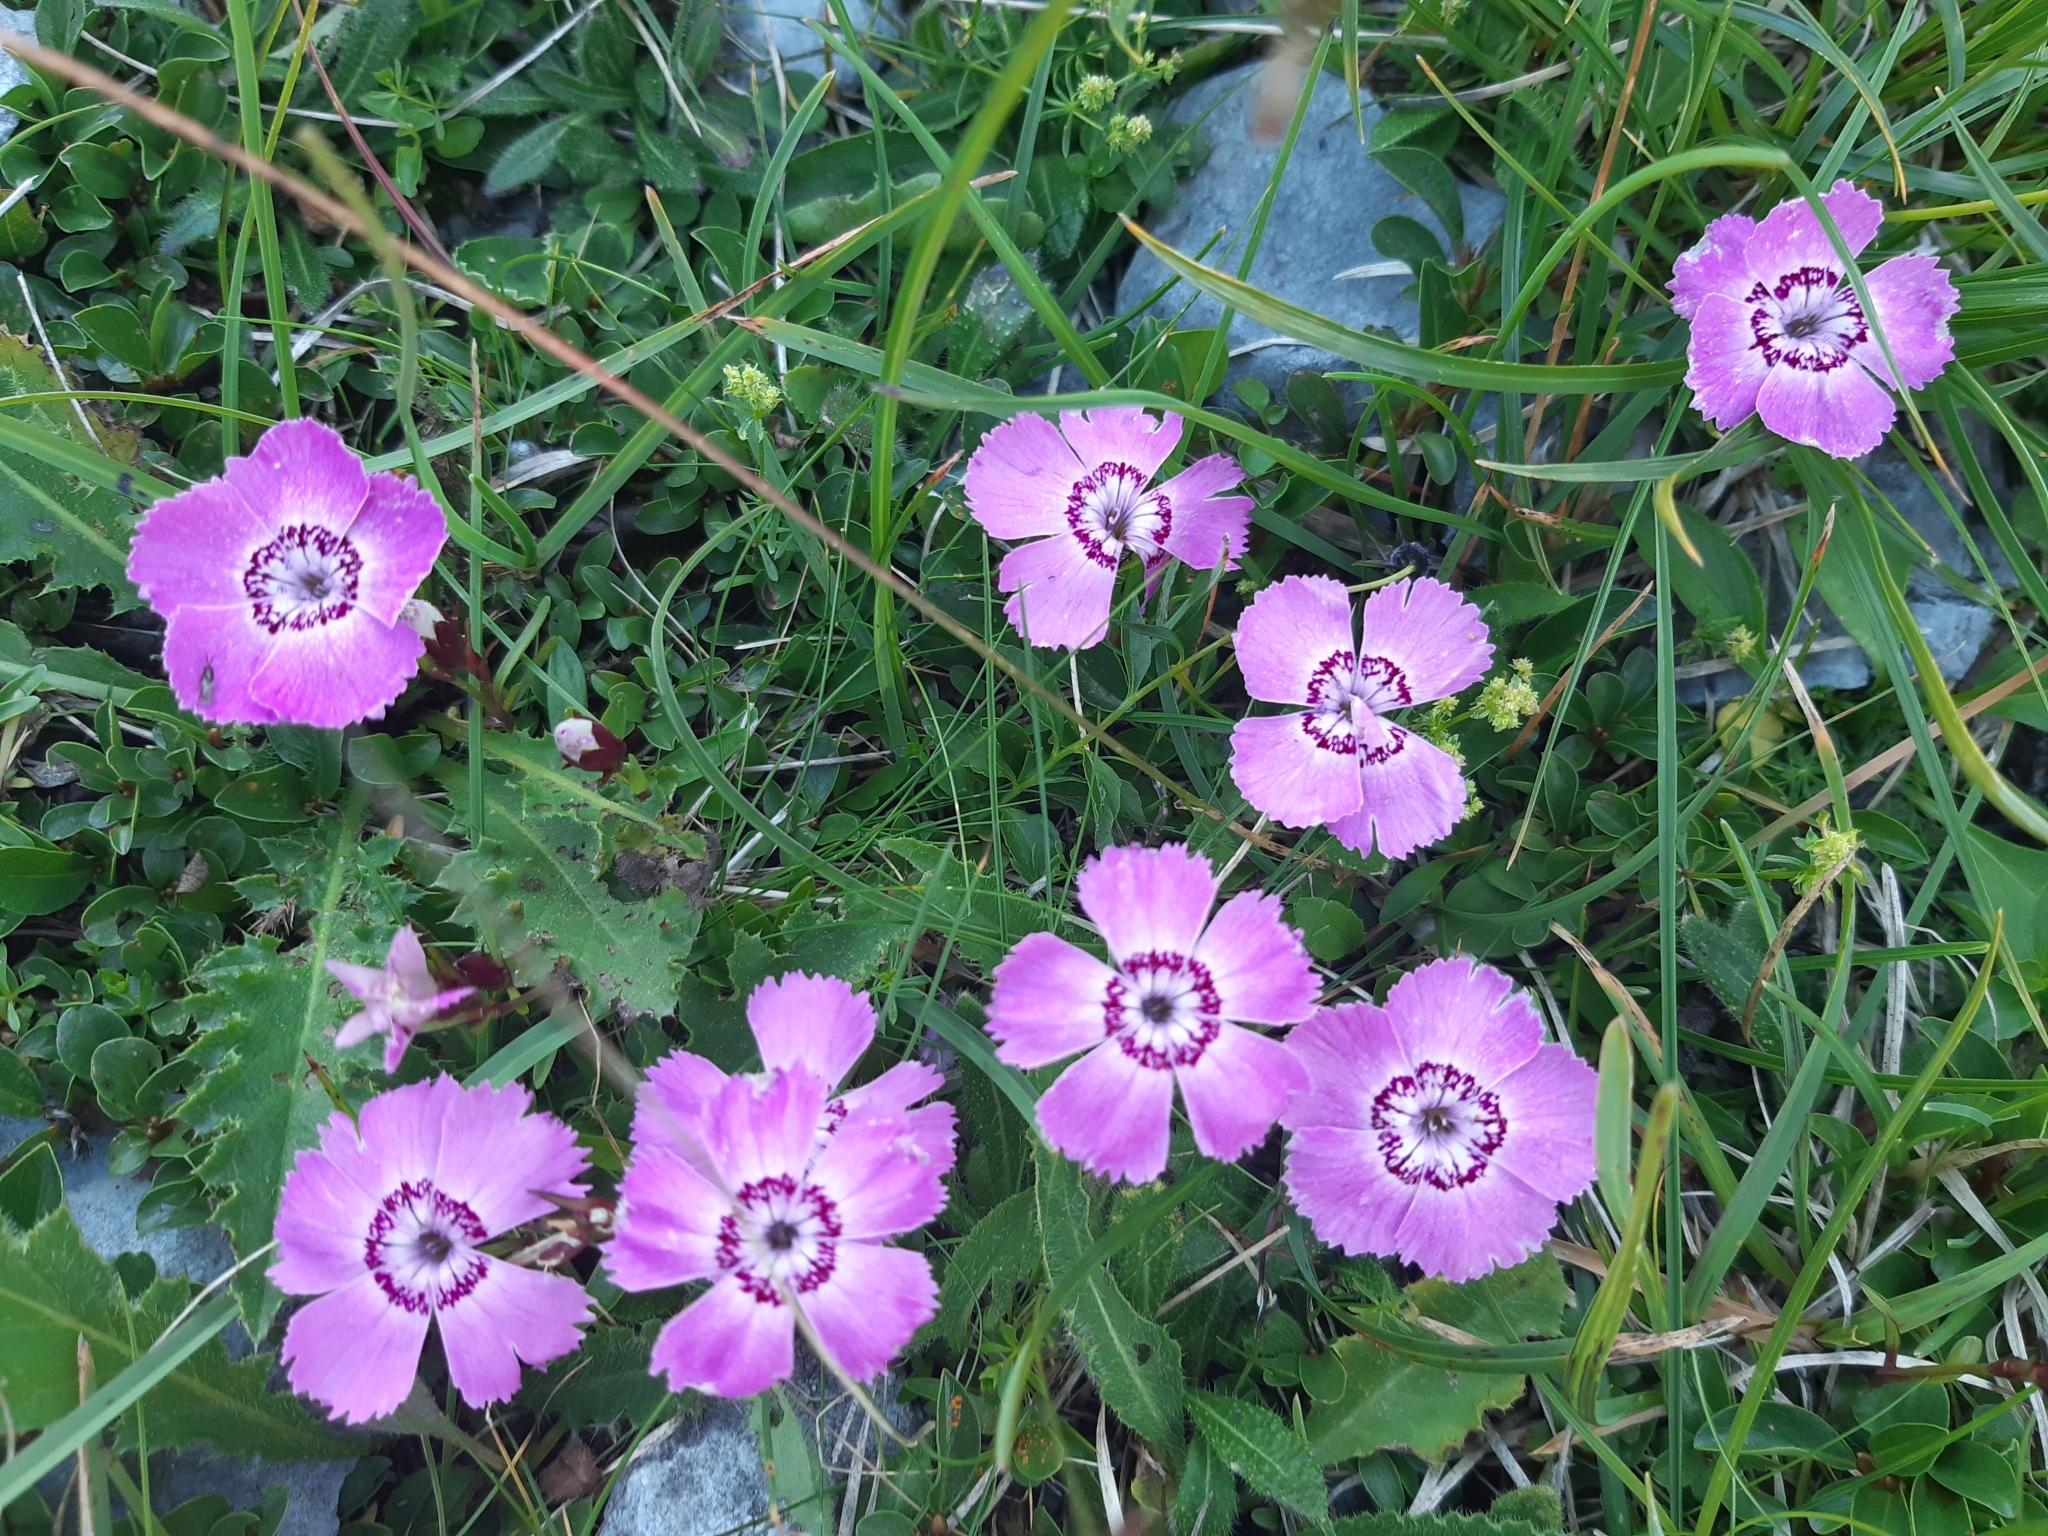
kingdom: Plantae
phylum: Tracheophyta
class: Magnoliopsida
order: Caryophyllales
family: Caryophyllaceae
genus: Dianthus
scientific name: Dianthus alpinus
